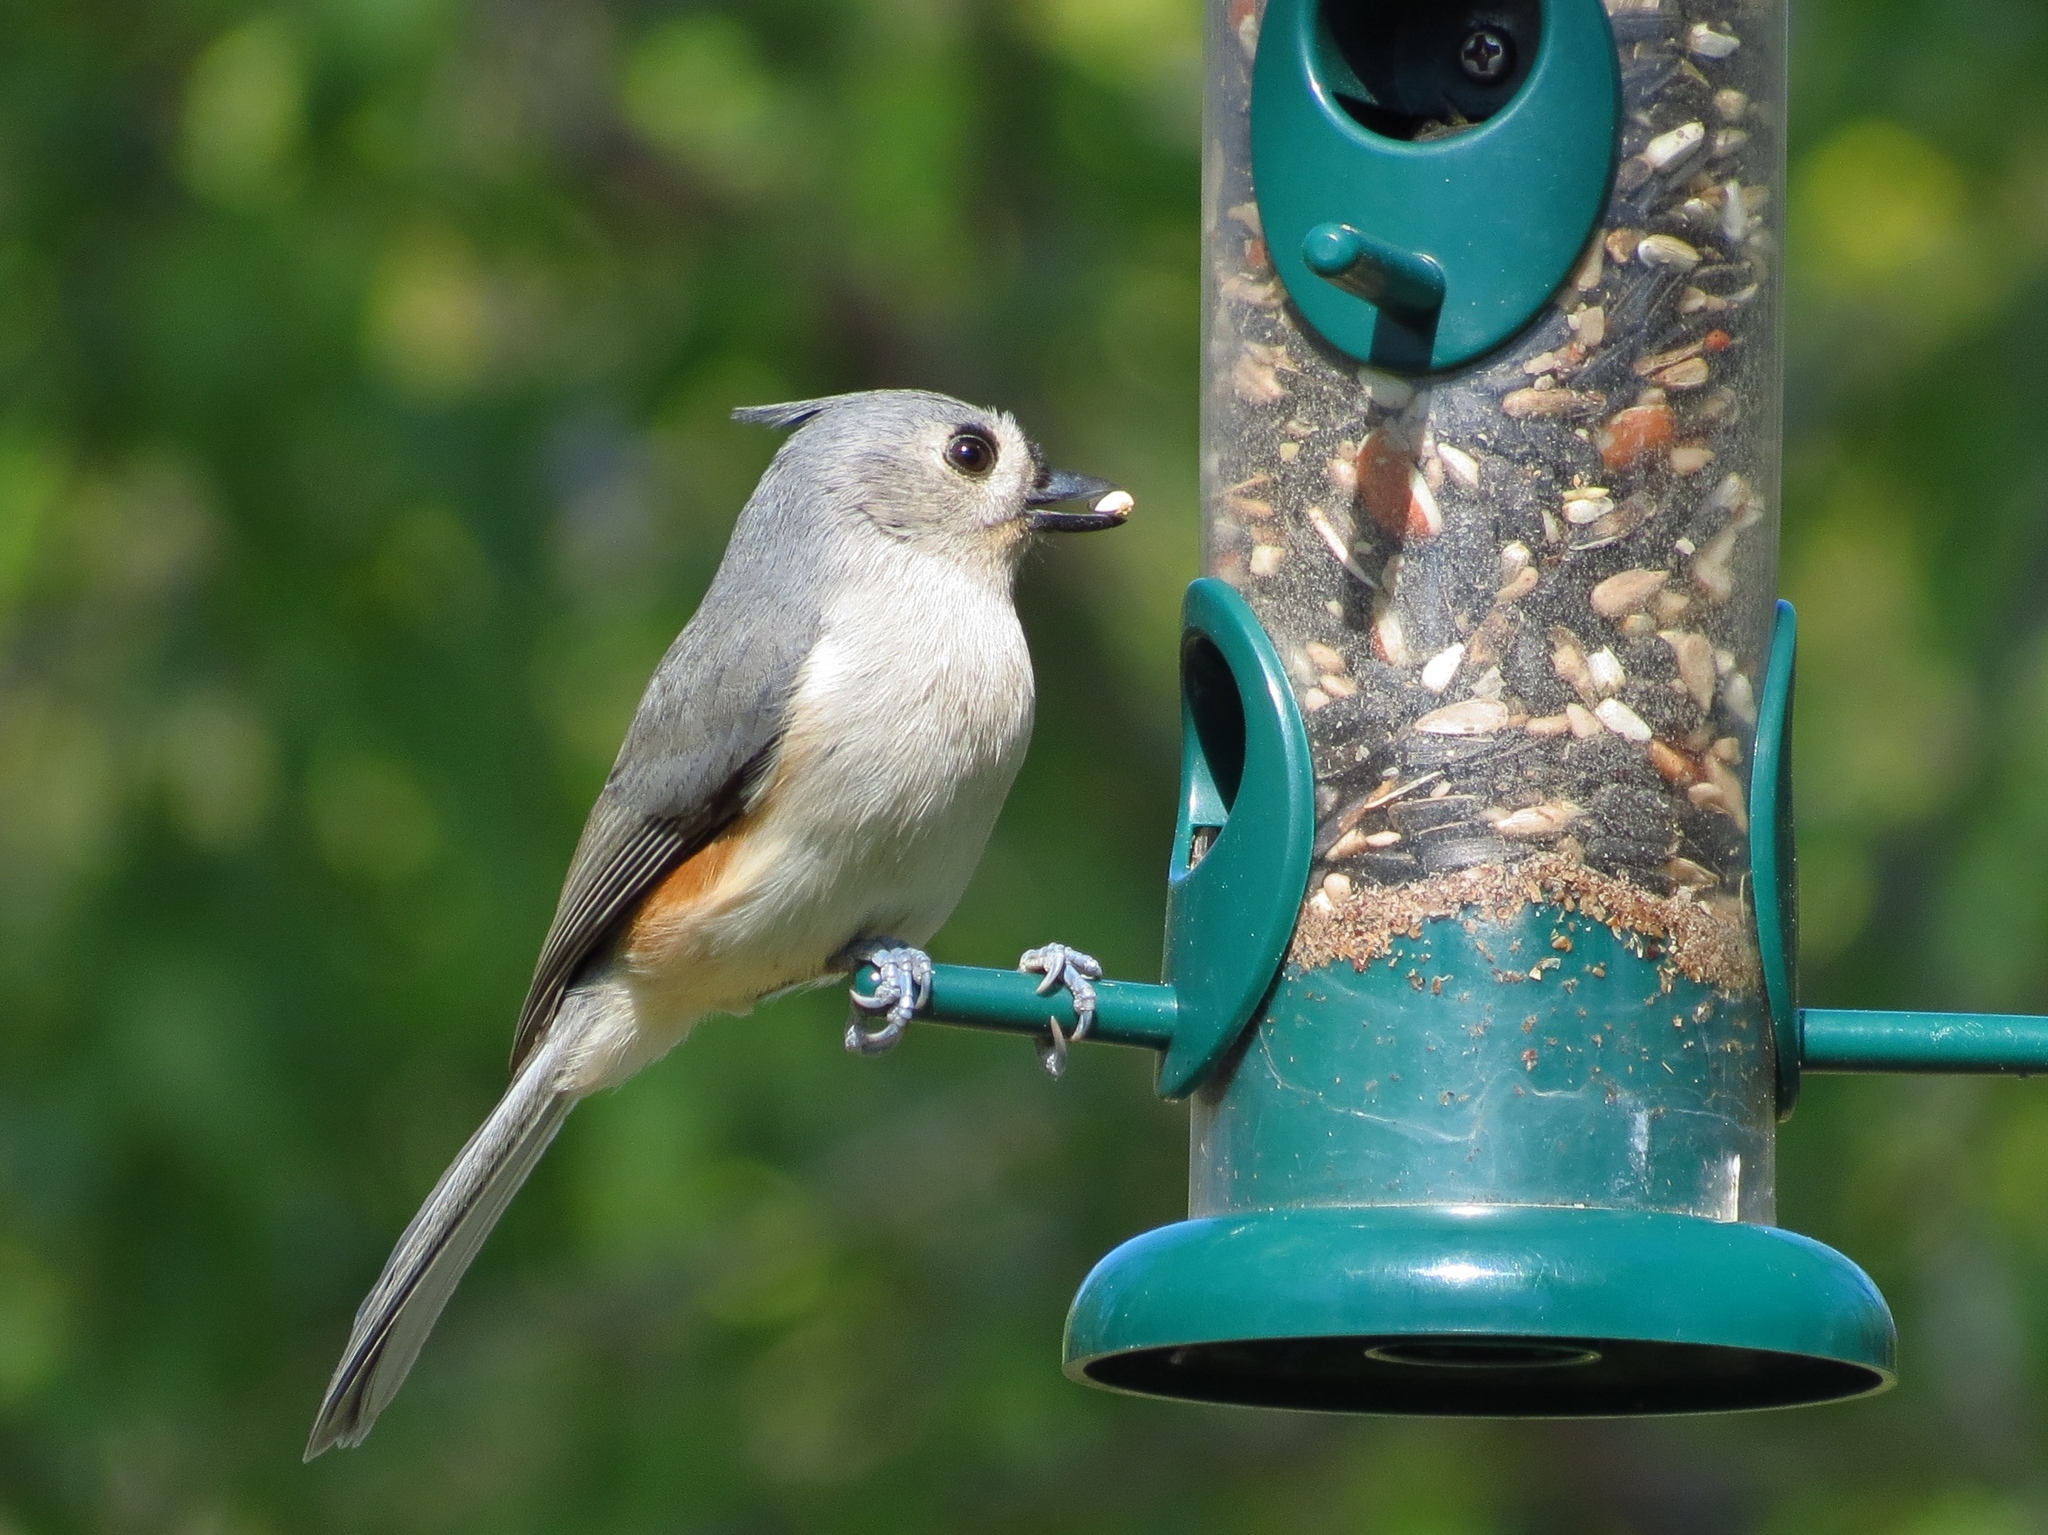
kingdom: Animalia
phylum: Chordata
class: Aves
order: Passeriformes
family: Paridae
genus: Baeolophus
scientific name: Baeolophus bicolor
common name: Tufted titmouse
